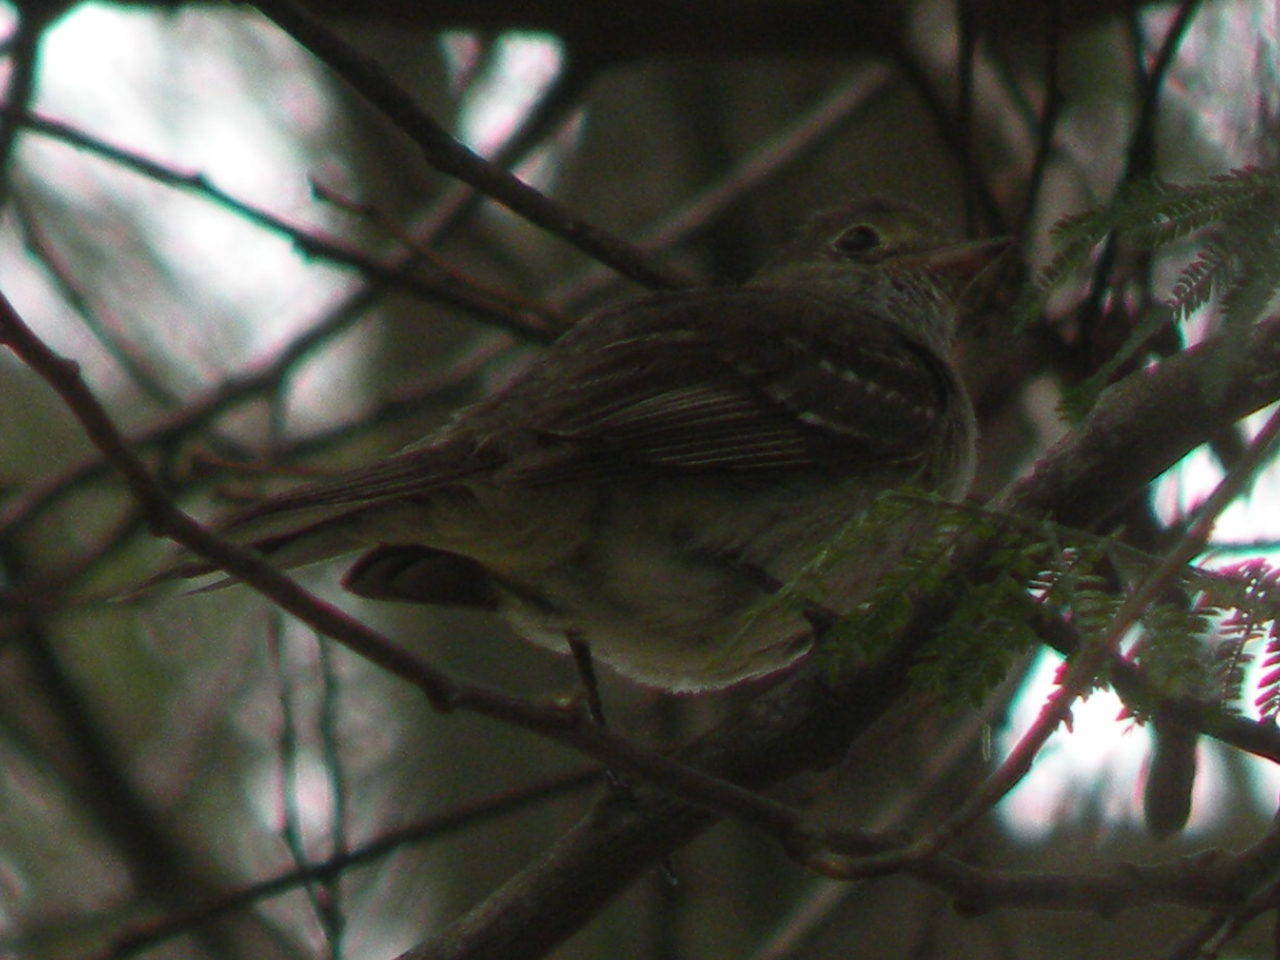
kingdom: Animalia
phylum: Chordata
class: Aves
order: Passeriformes
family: Tyrannidae
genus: Elaenia
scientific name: Elaenia parvirostris
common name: Small-billed elaenia
